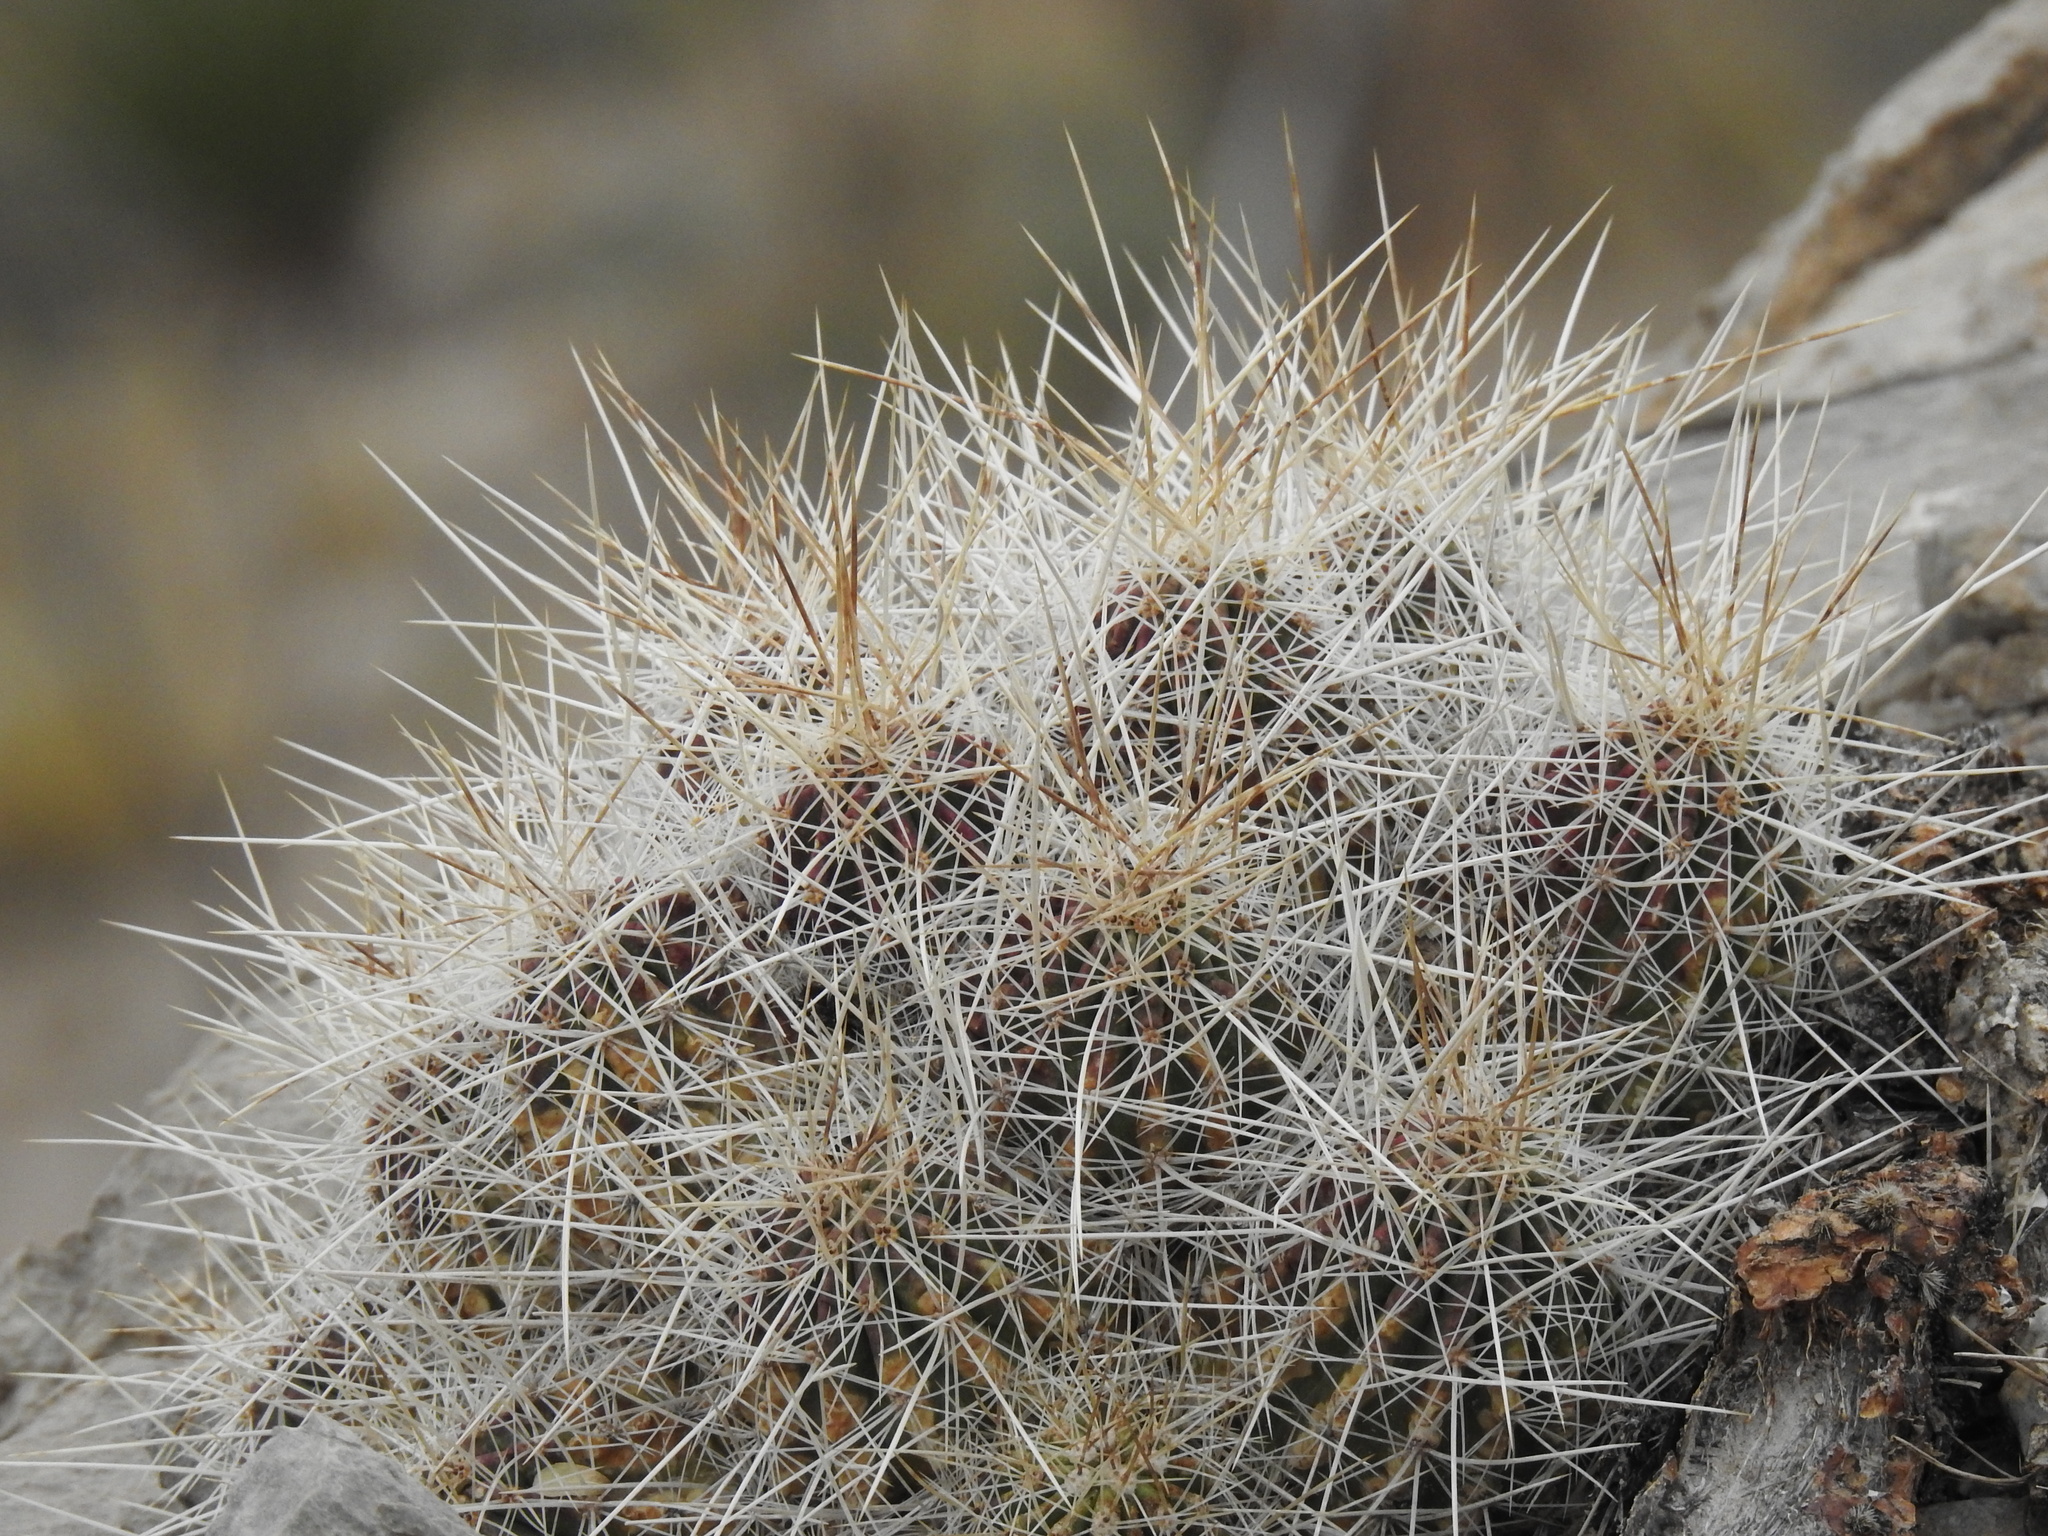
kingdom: Plantae
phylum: Tracheophyta
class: Magnoliopsida
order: Caryophyllales
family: Cactaceae
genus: Echinocereus
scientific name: Echinocereus stramineus
